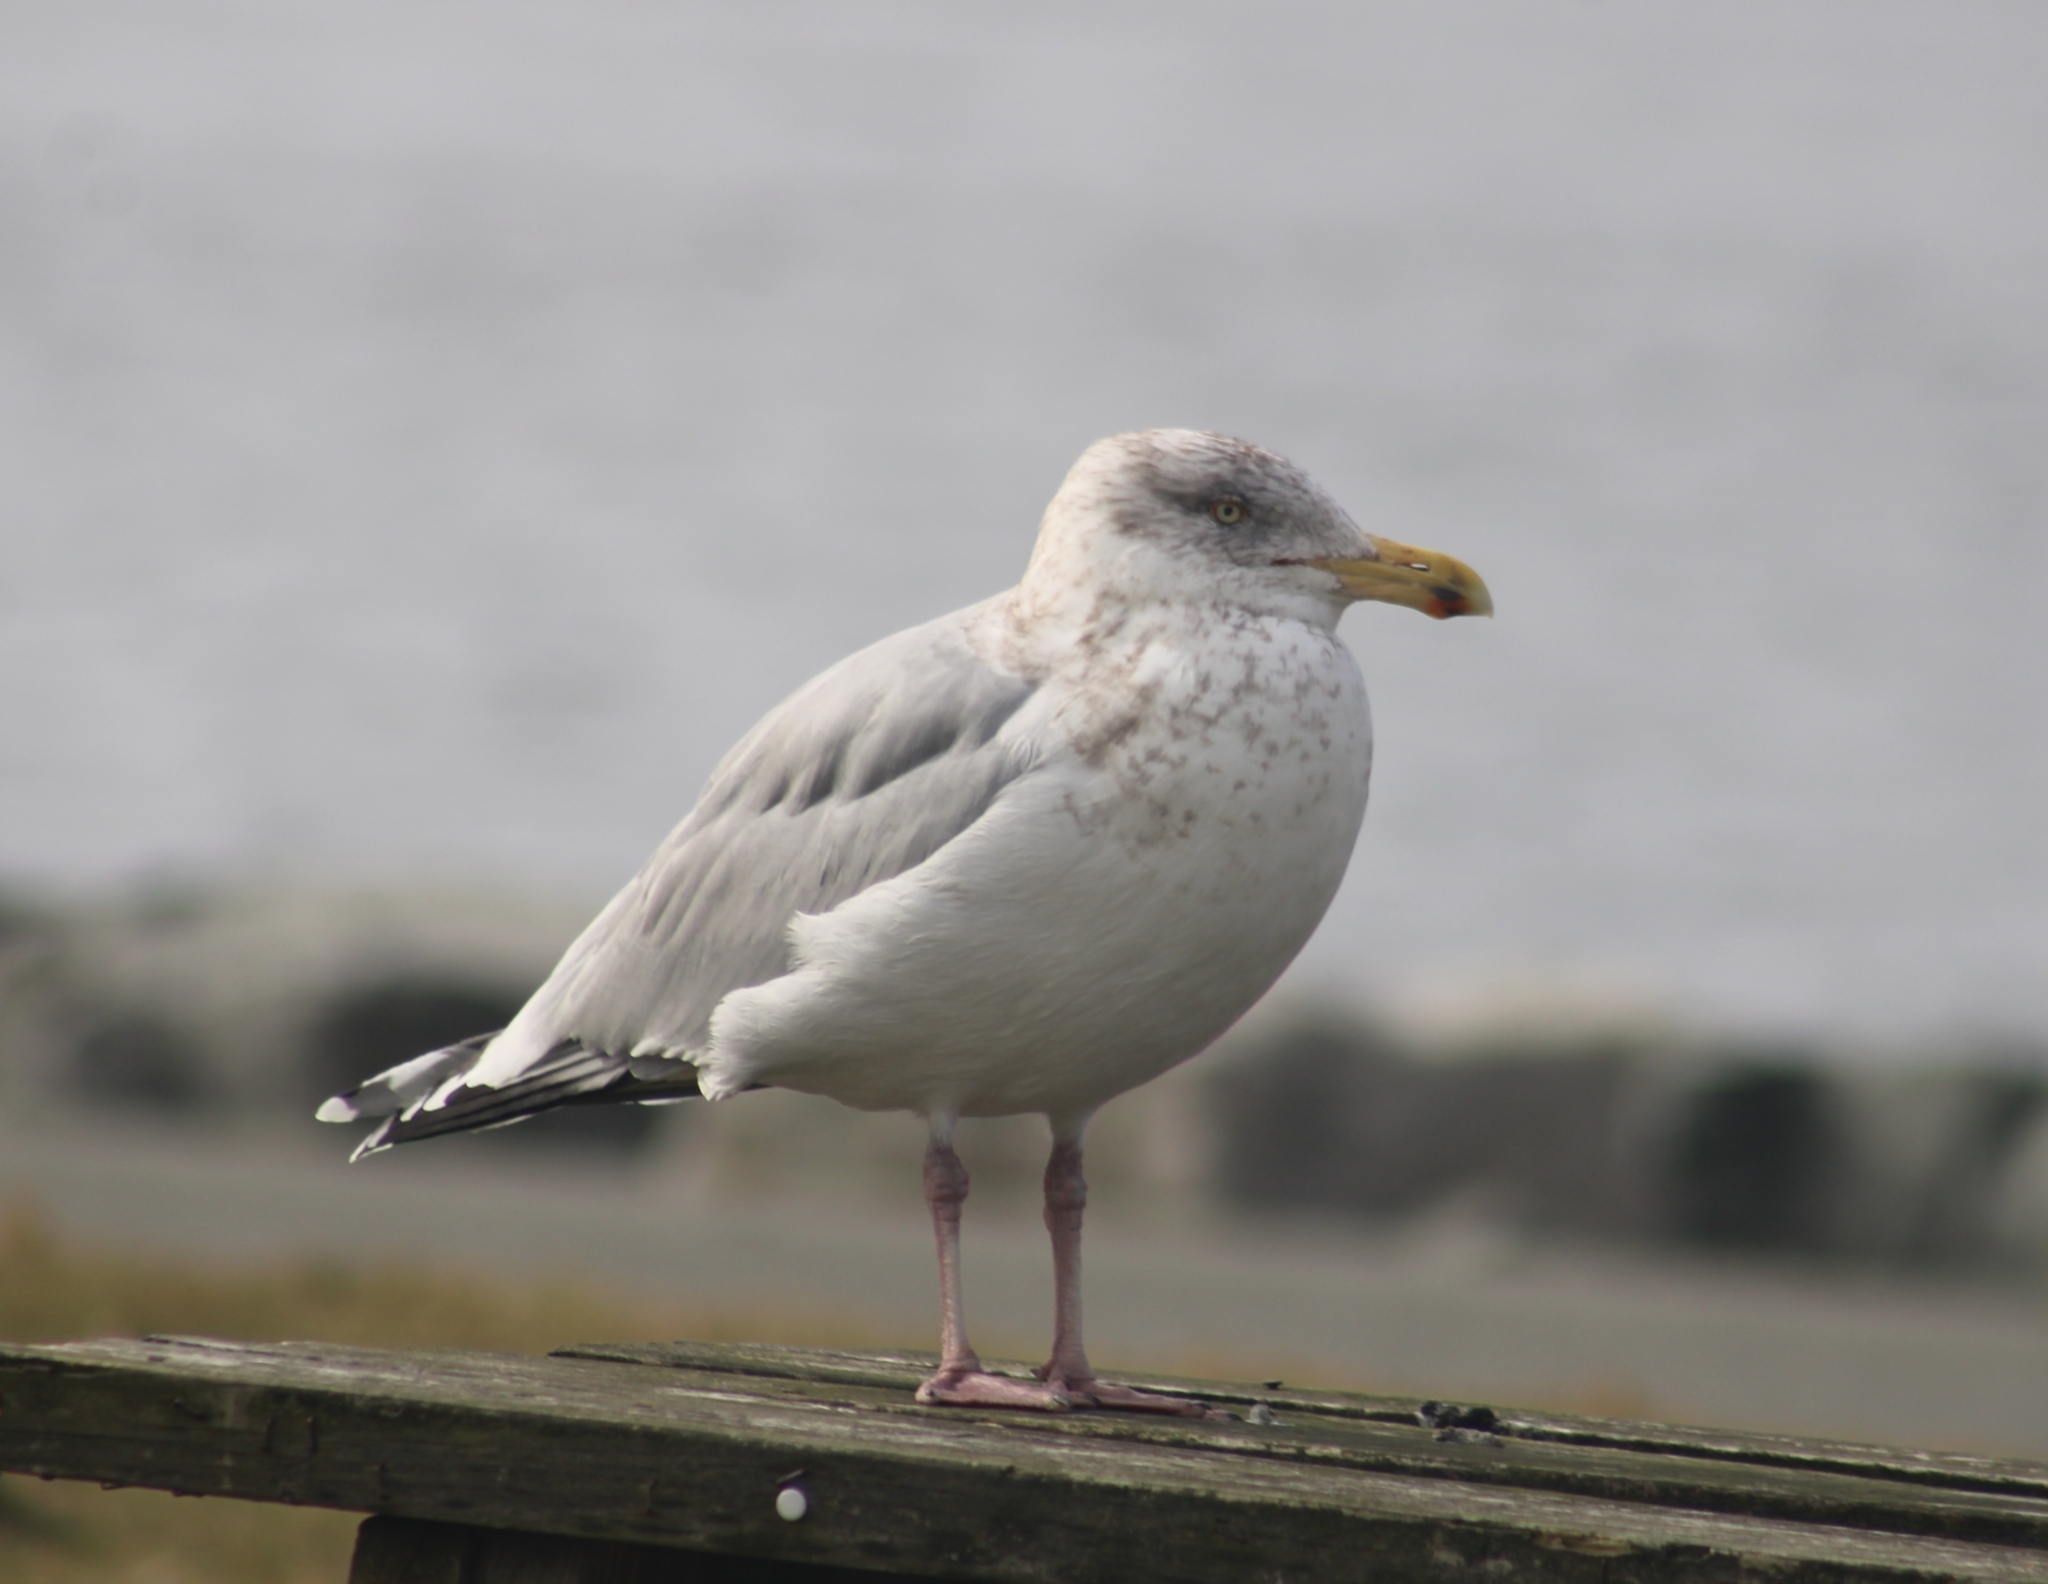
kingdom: Animalia
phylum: Chordata
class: Aves
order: Charadriiformes
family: Laridae
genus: Larus
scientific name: Larus argentatus
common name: Herring gull
